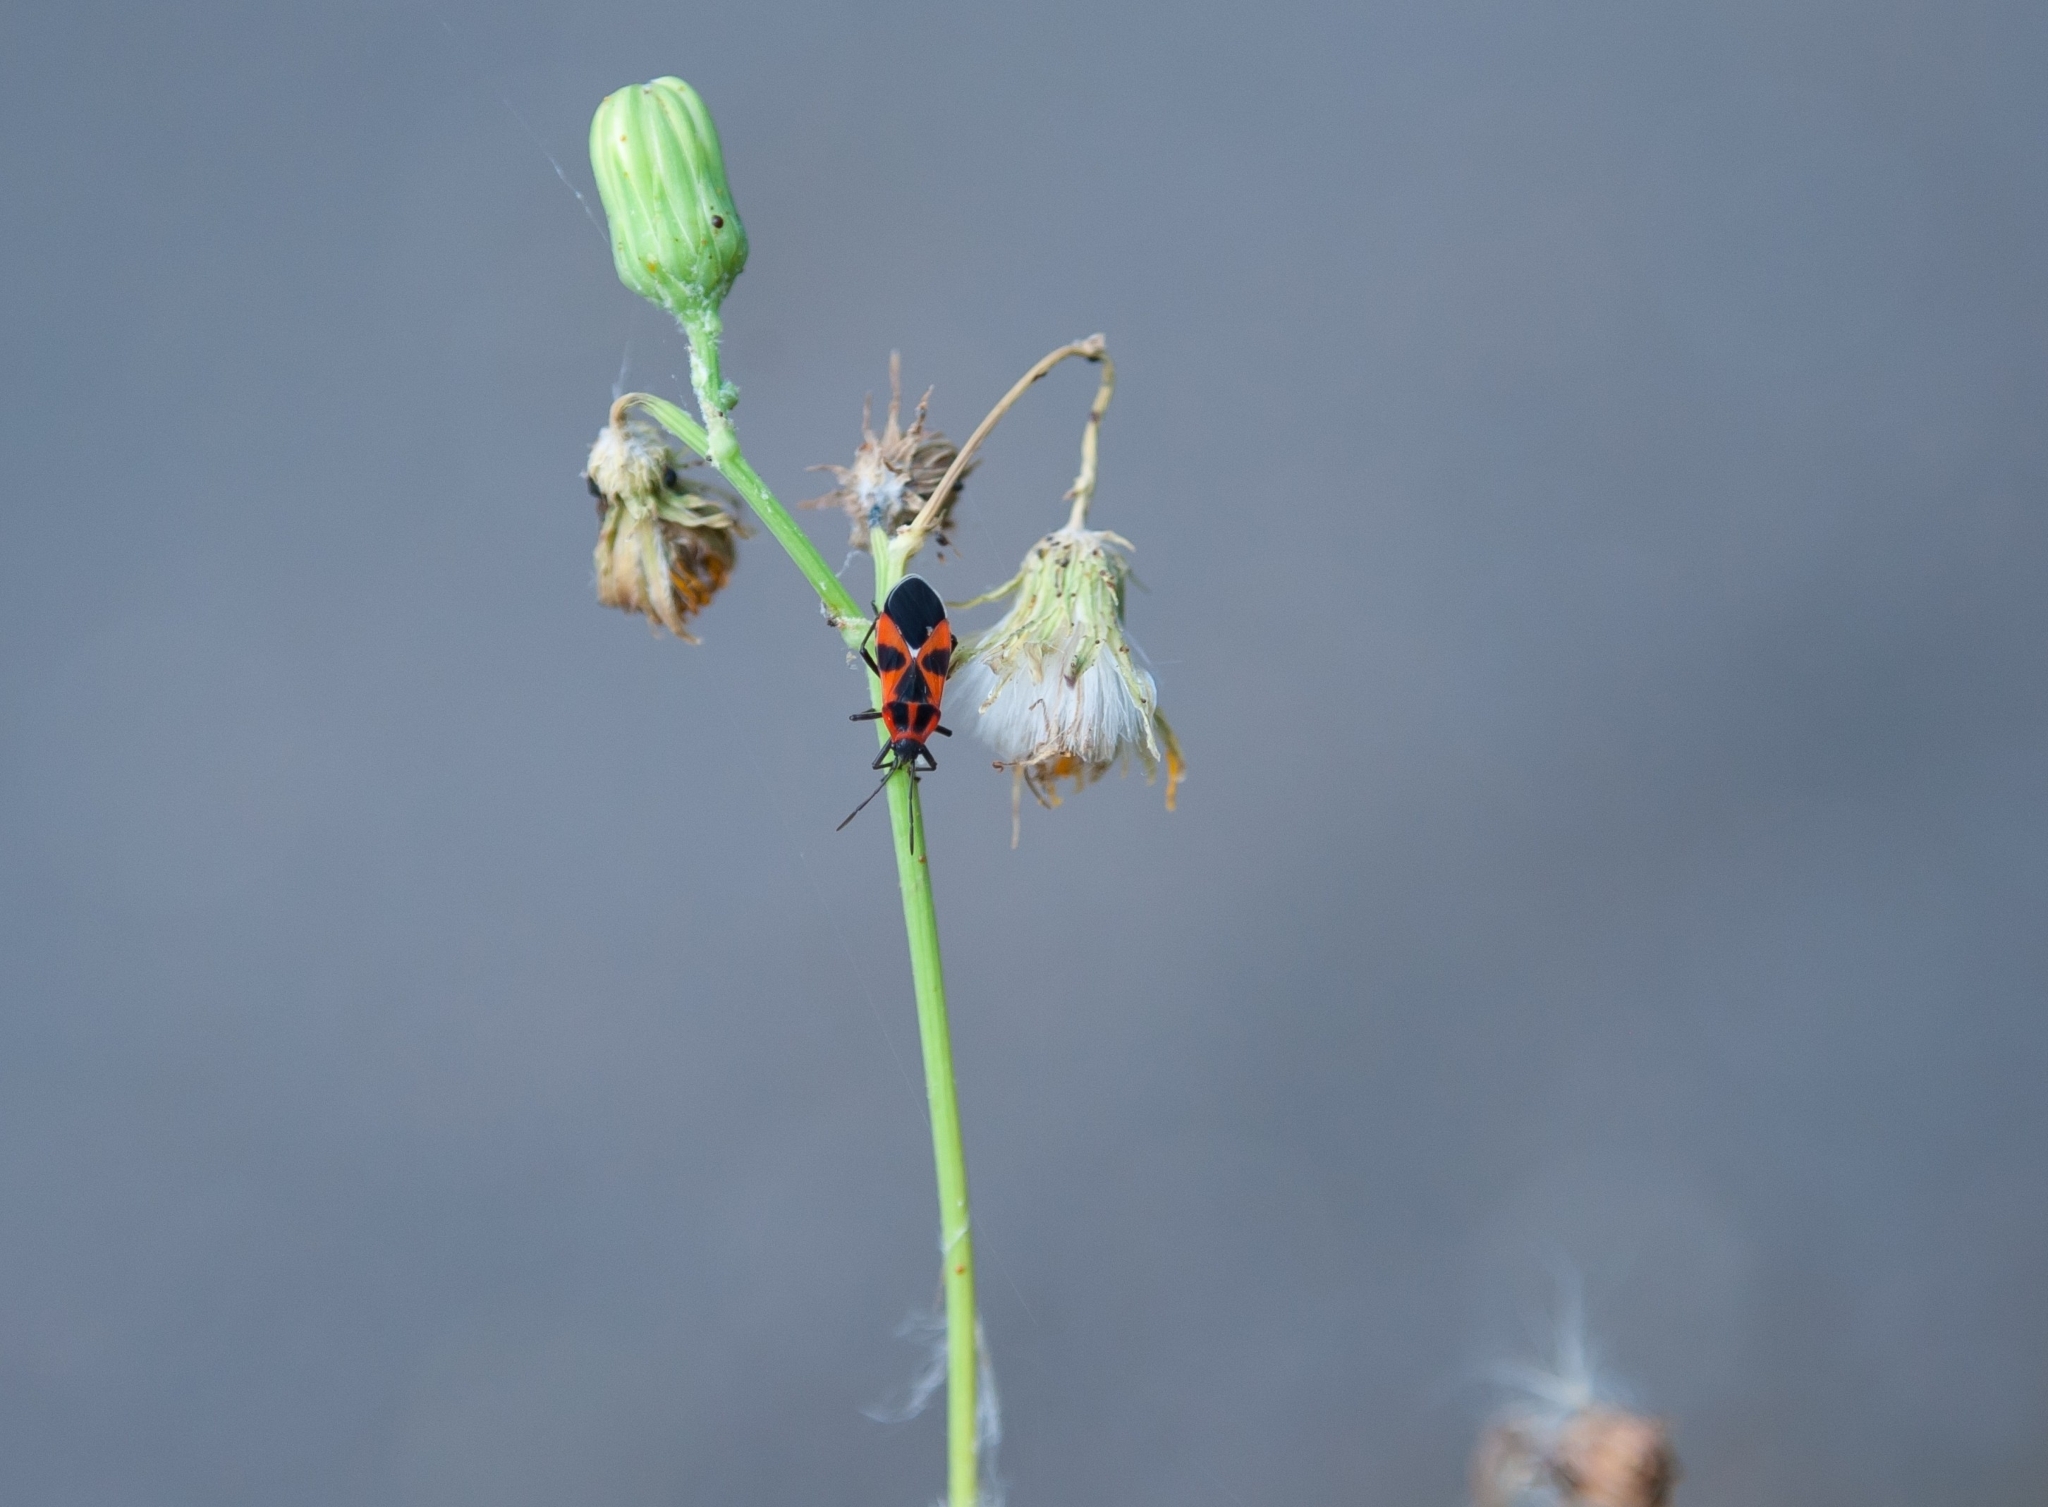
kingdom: Animalia
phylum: Arthropoda
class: Insecta
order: Hemiptera
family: Pyrrhocoridae
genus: Pyrrhocoris
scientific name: Pyrrhocoris apterus
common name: Firebug
